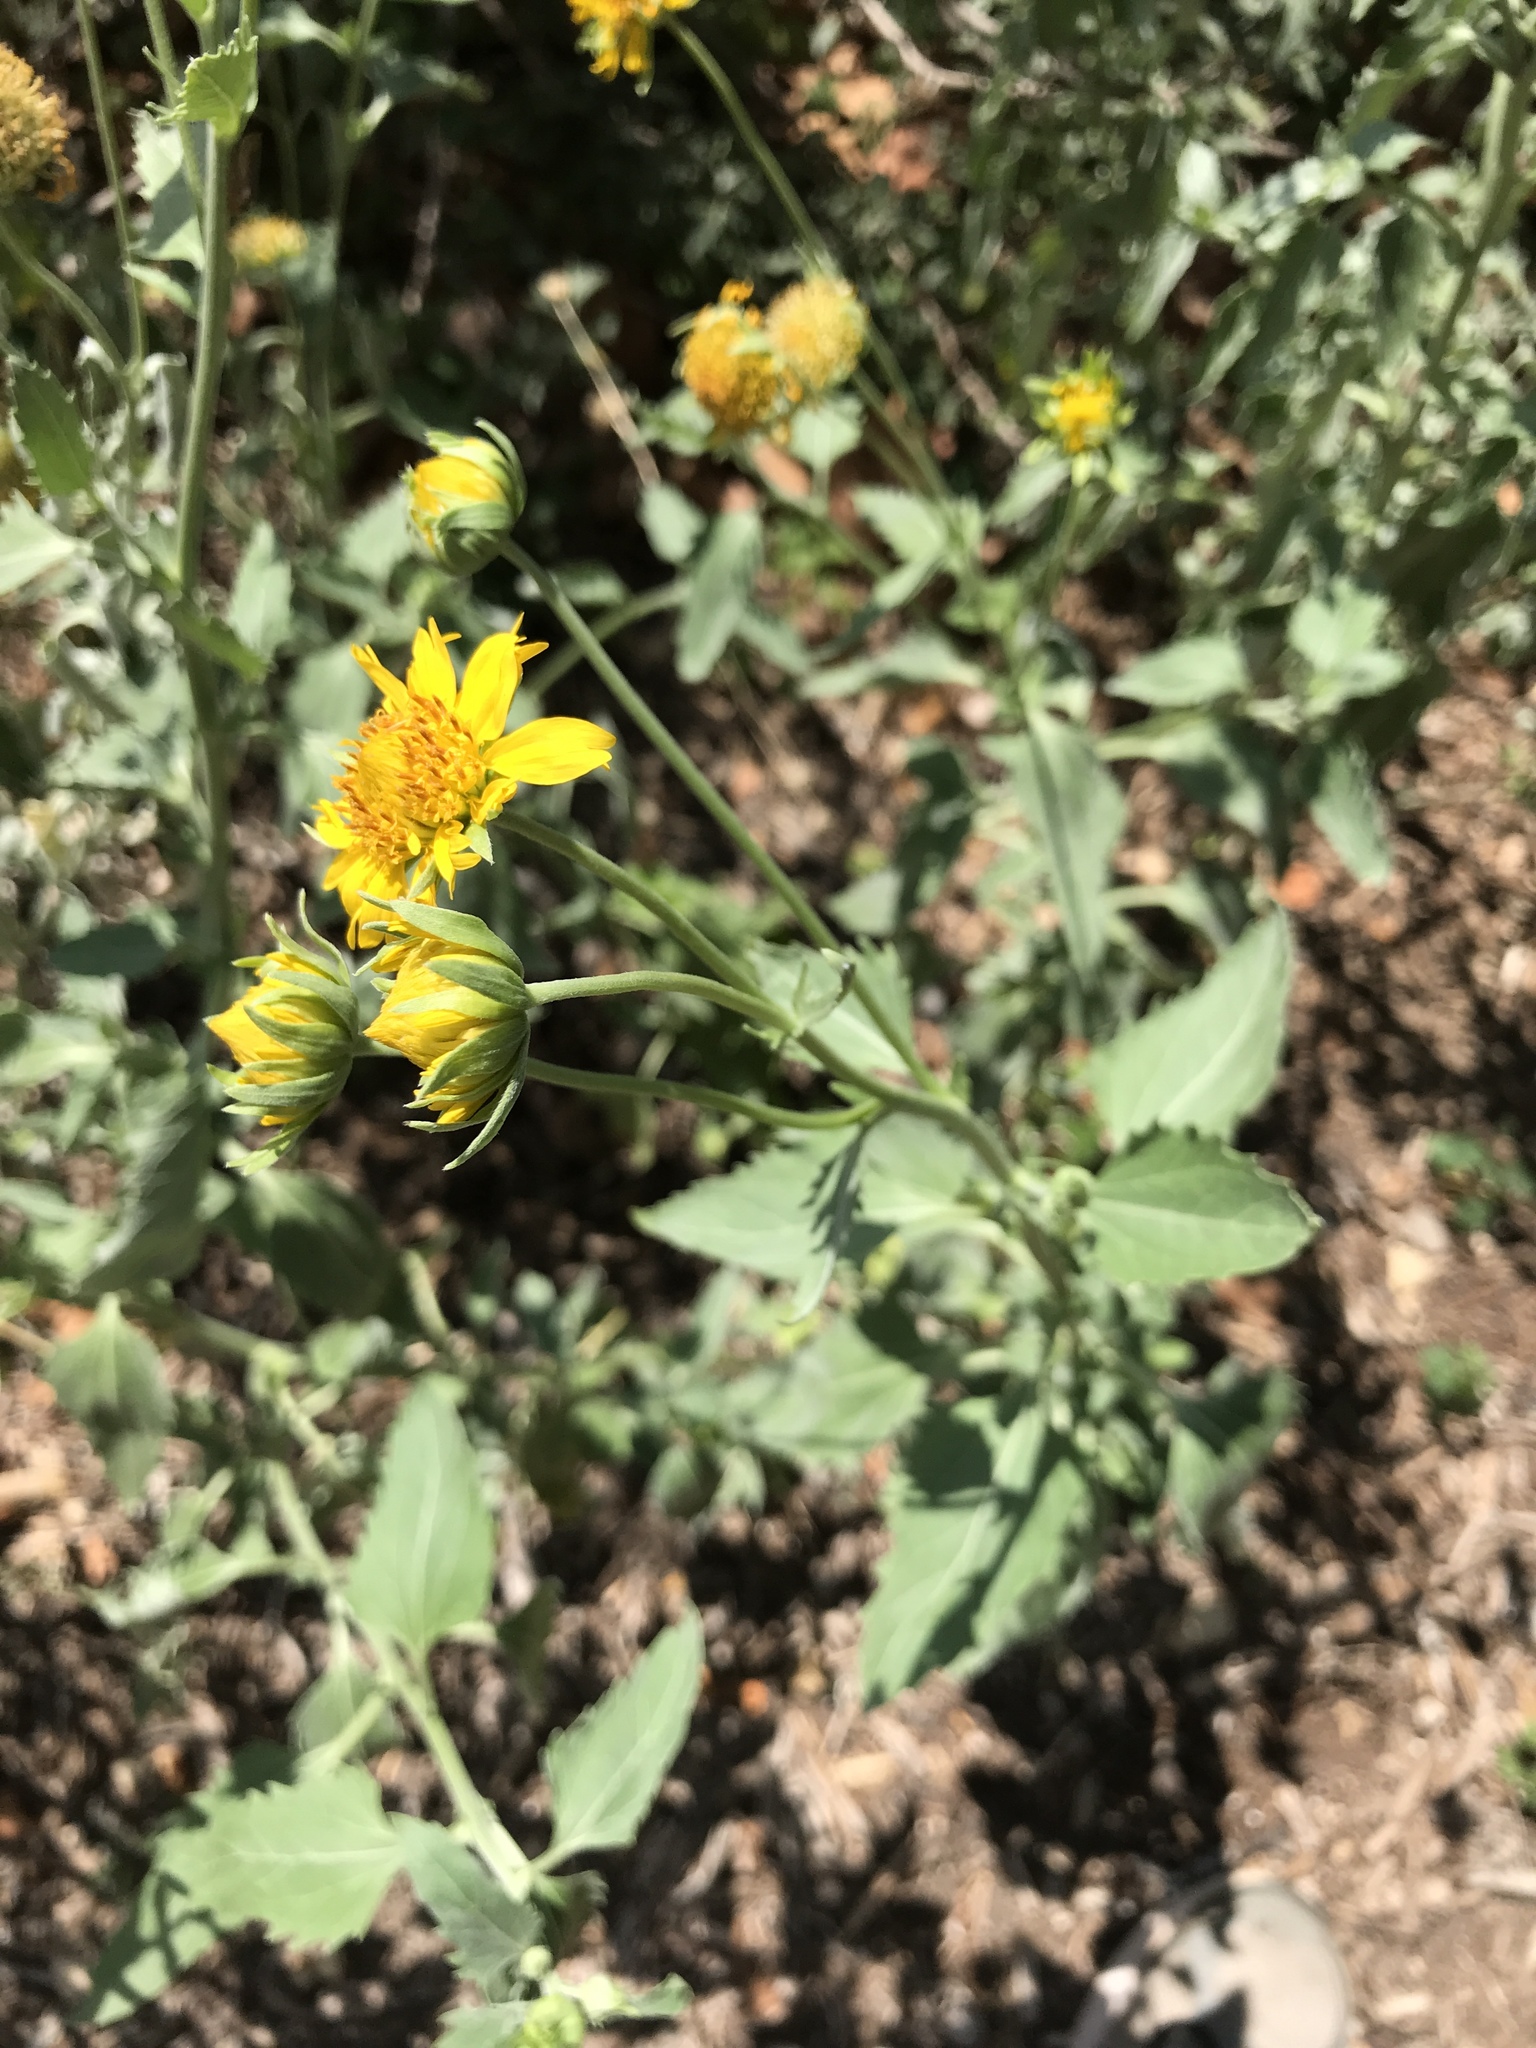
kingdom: Plantae
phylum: Tracheophyta
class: Magnoliopsida
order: Asterales
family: Asteraceae
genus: Verbesina
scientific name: Verbesina encelioides
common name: Golden crownbeard
